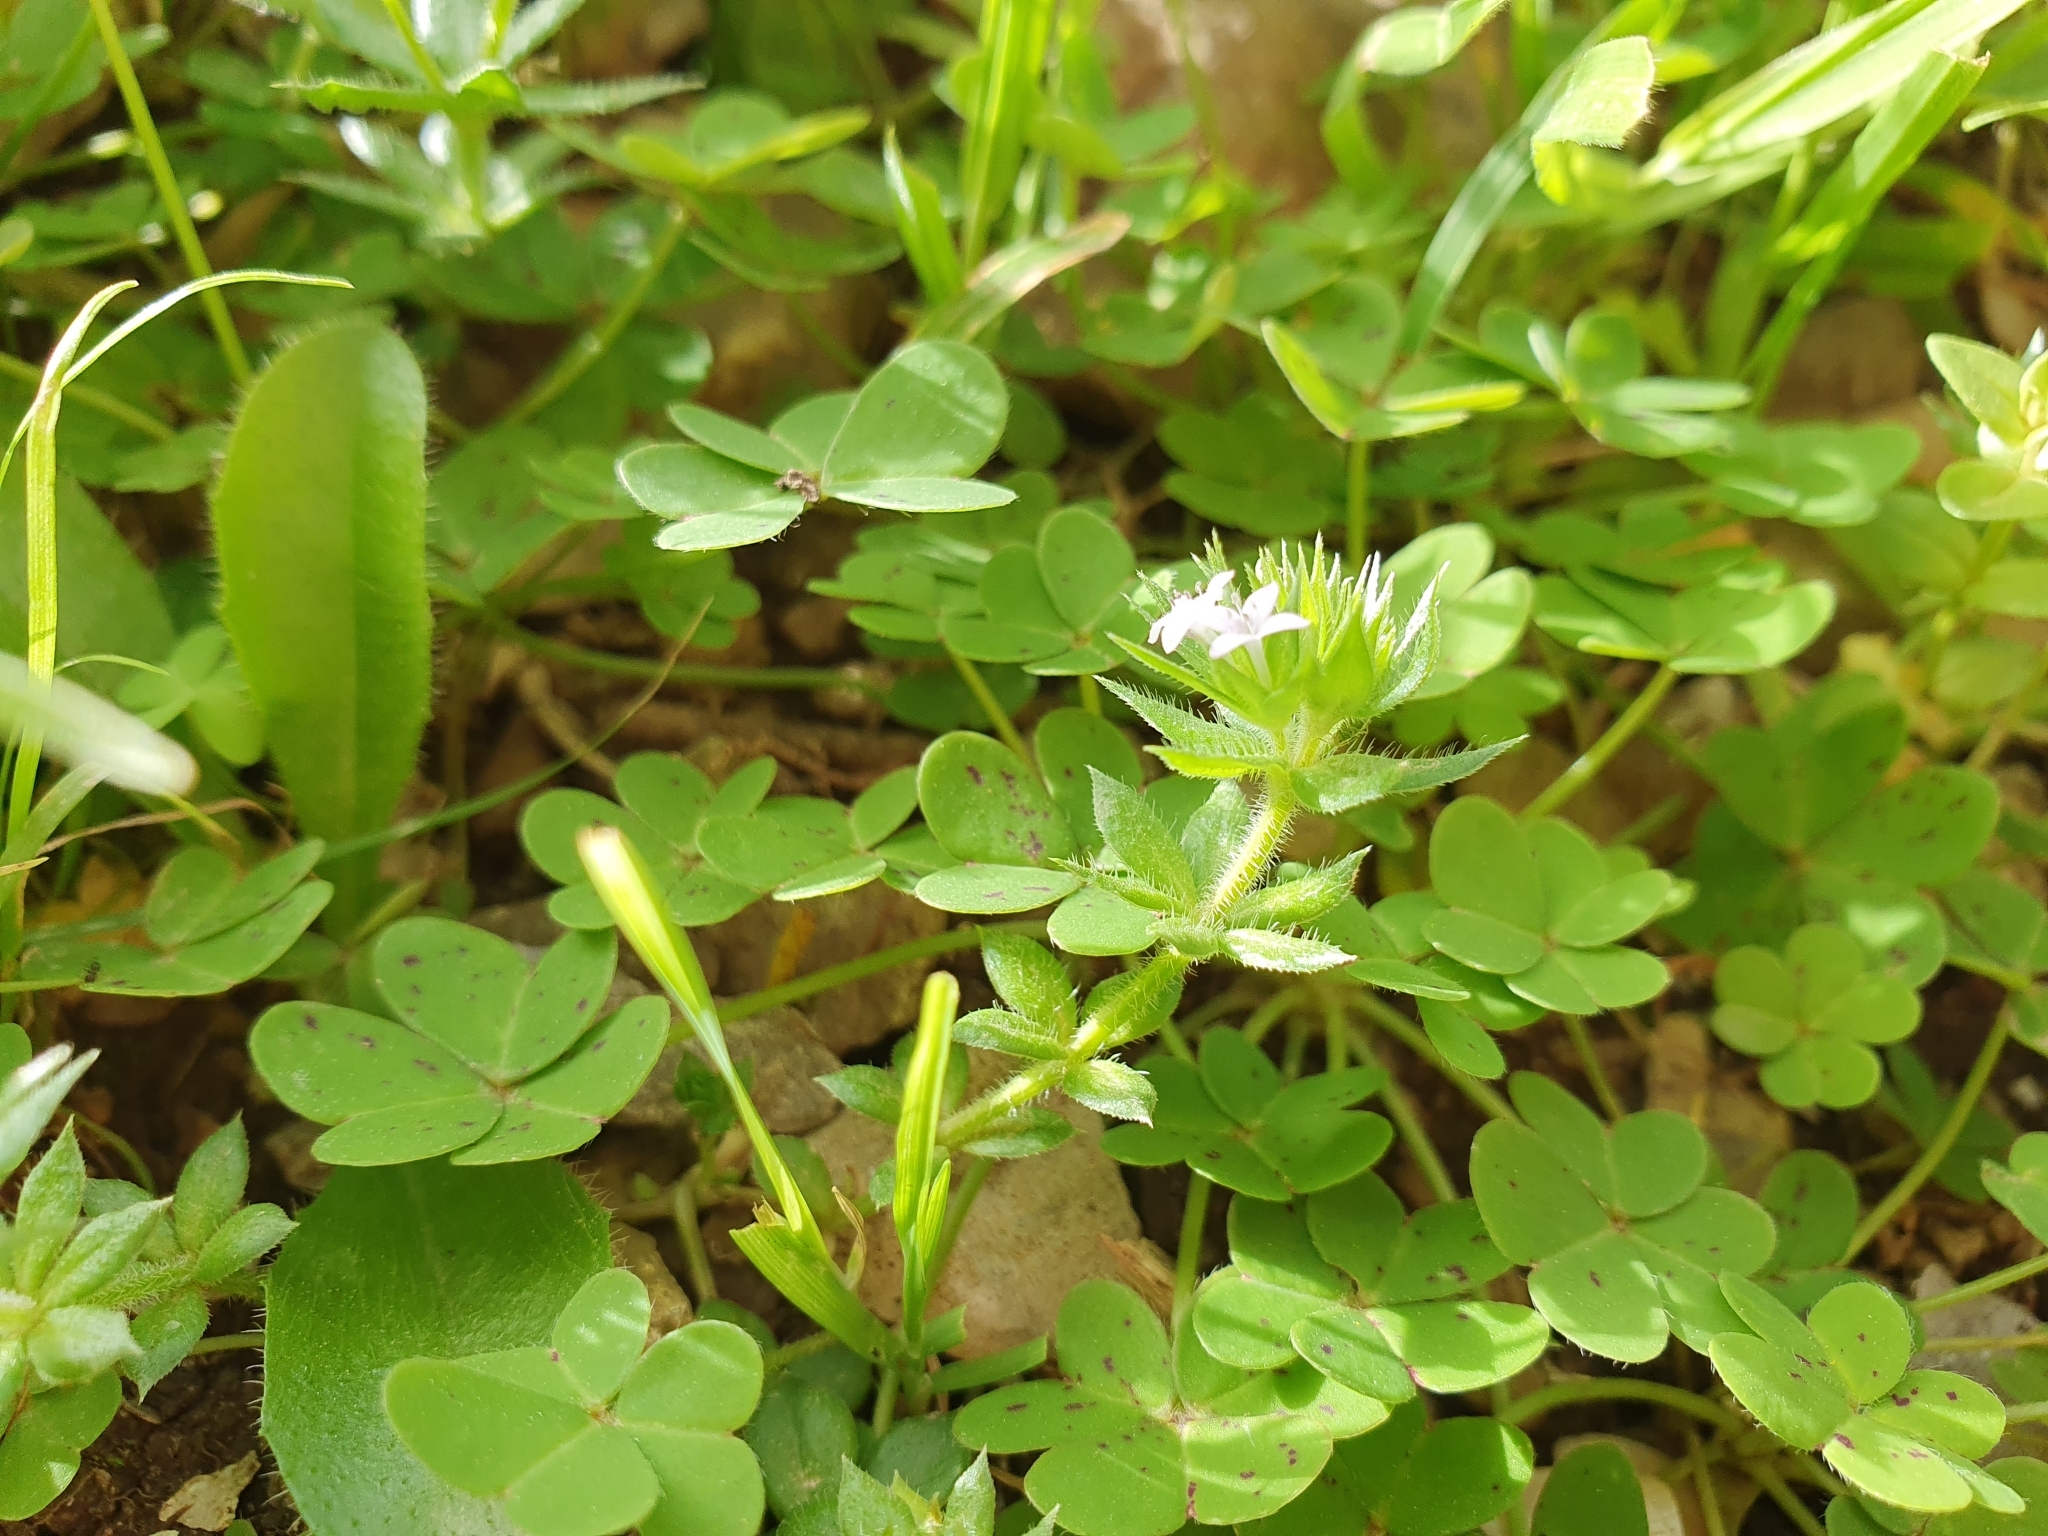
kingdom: Plantae
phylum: Tracheophyta
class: Magnoliopsida
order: Gentianales
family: Rubiaceae
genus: Sherardia
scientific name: Sherardia arvensis
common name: Field madder
